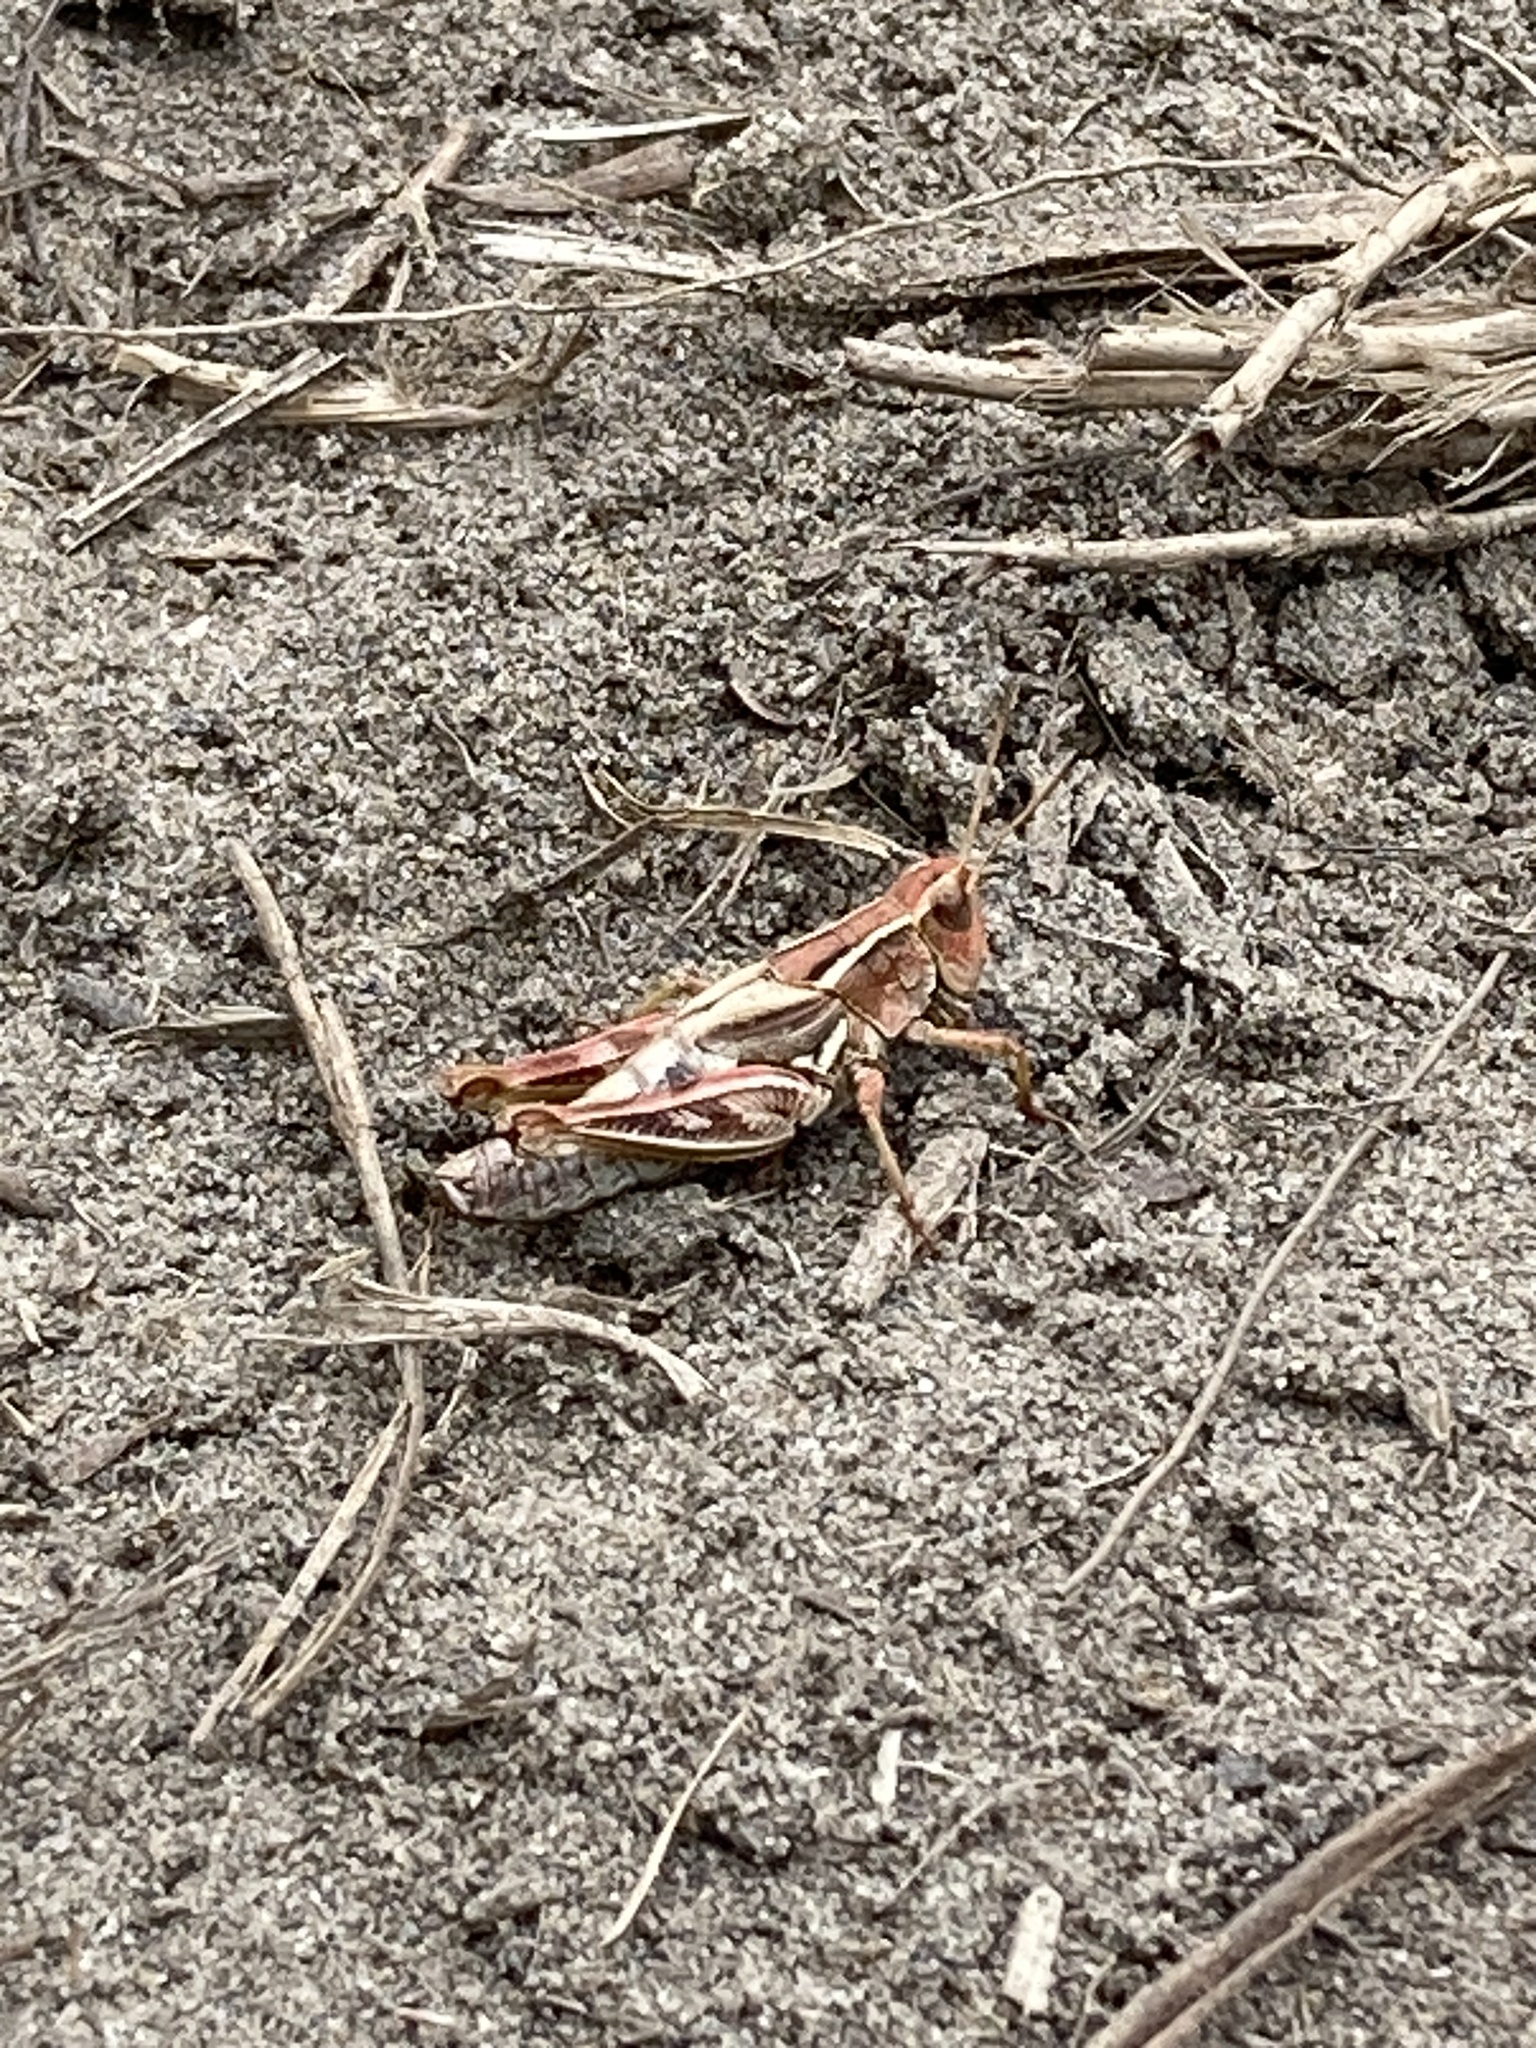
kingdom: Animalia
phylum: Arthropoda
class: Insecta
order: Orthoptera
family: Acrididae
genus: Phaulacridium
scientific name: Phaulacridium marginale
